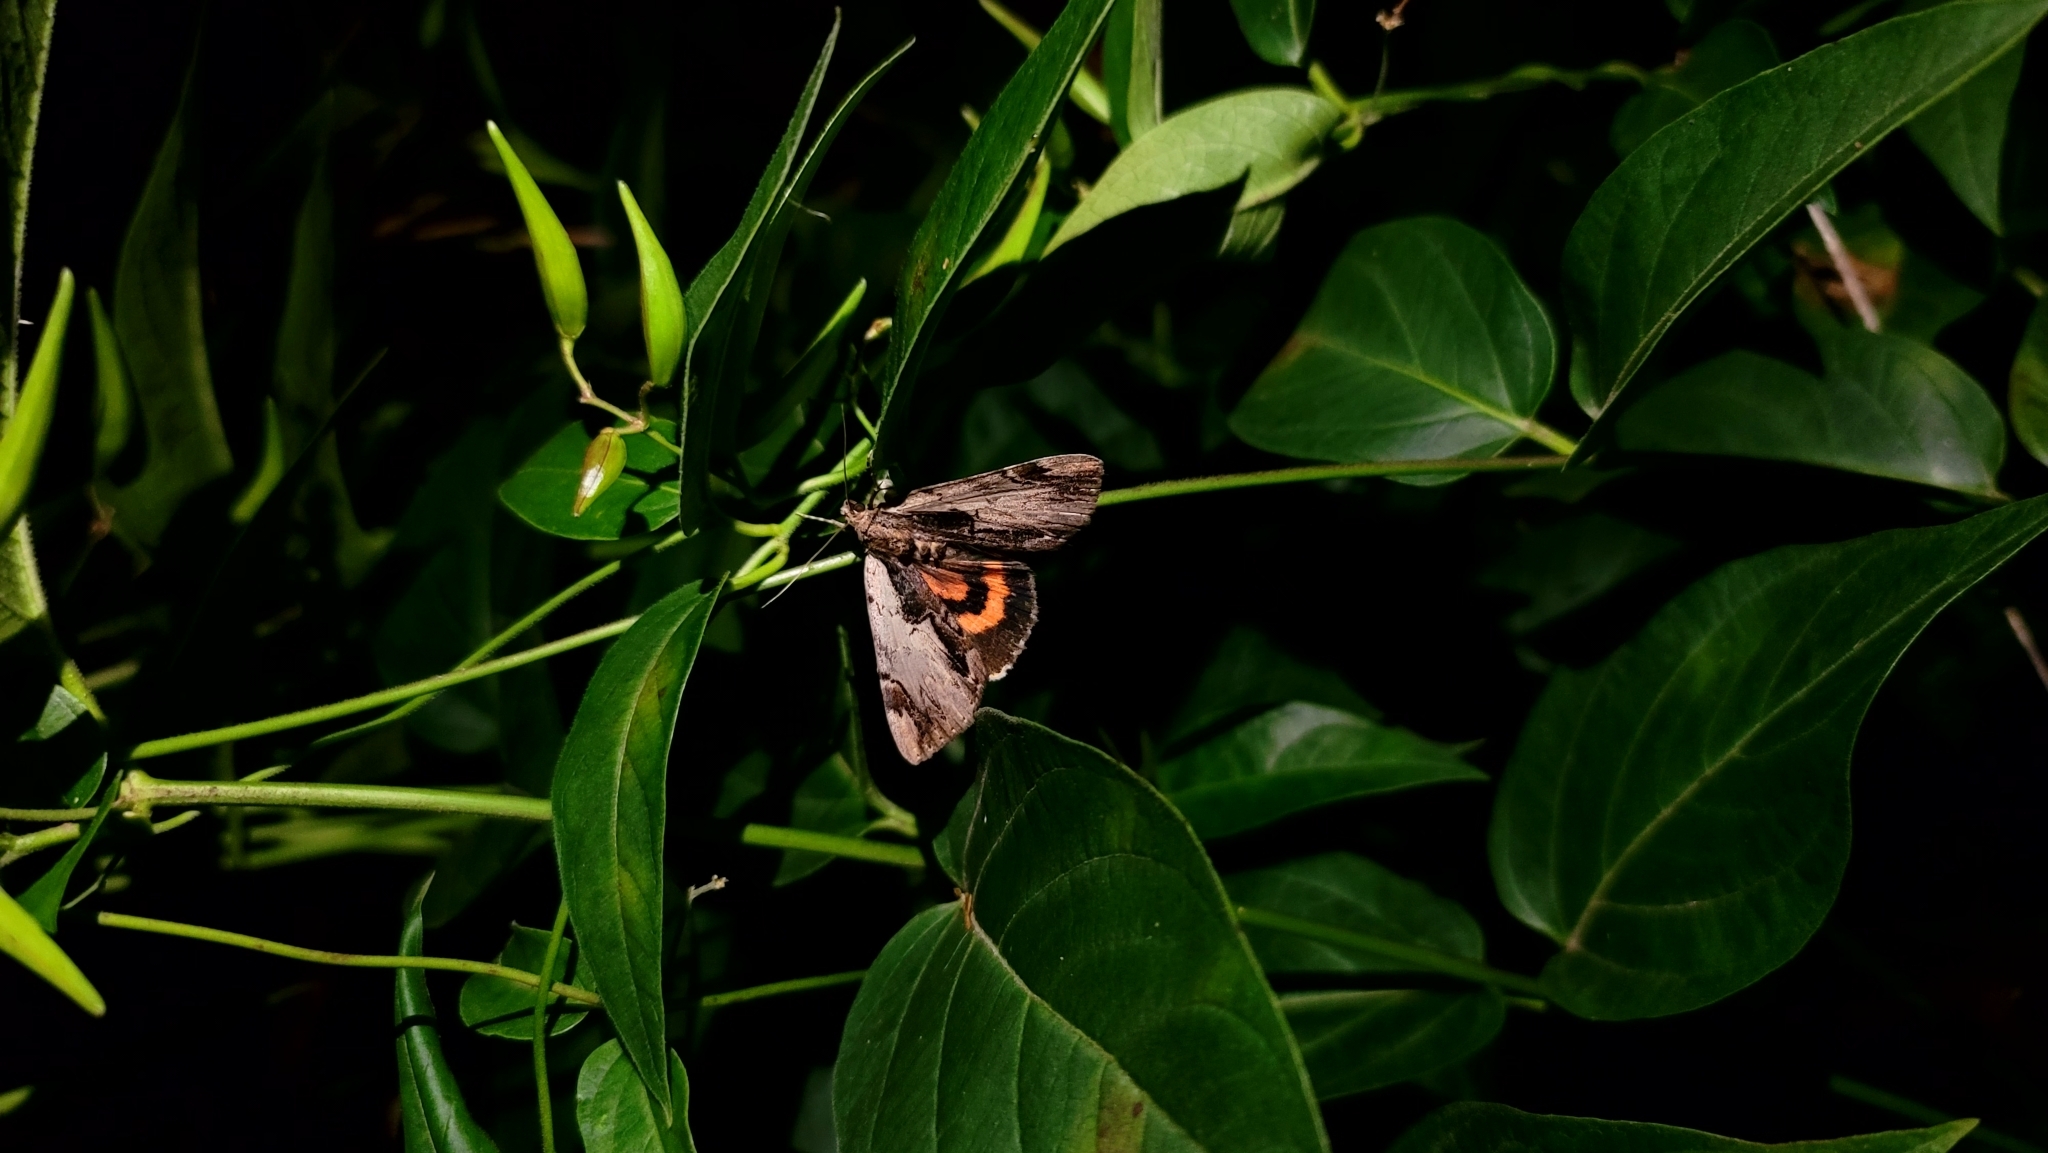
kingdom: Animalia
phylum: Arthropoda
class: Insecta
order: Lepidoptera
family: Erebidae
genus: Catocala
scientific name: Catocala ultronia
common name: Ultronia underwing
